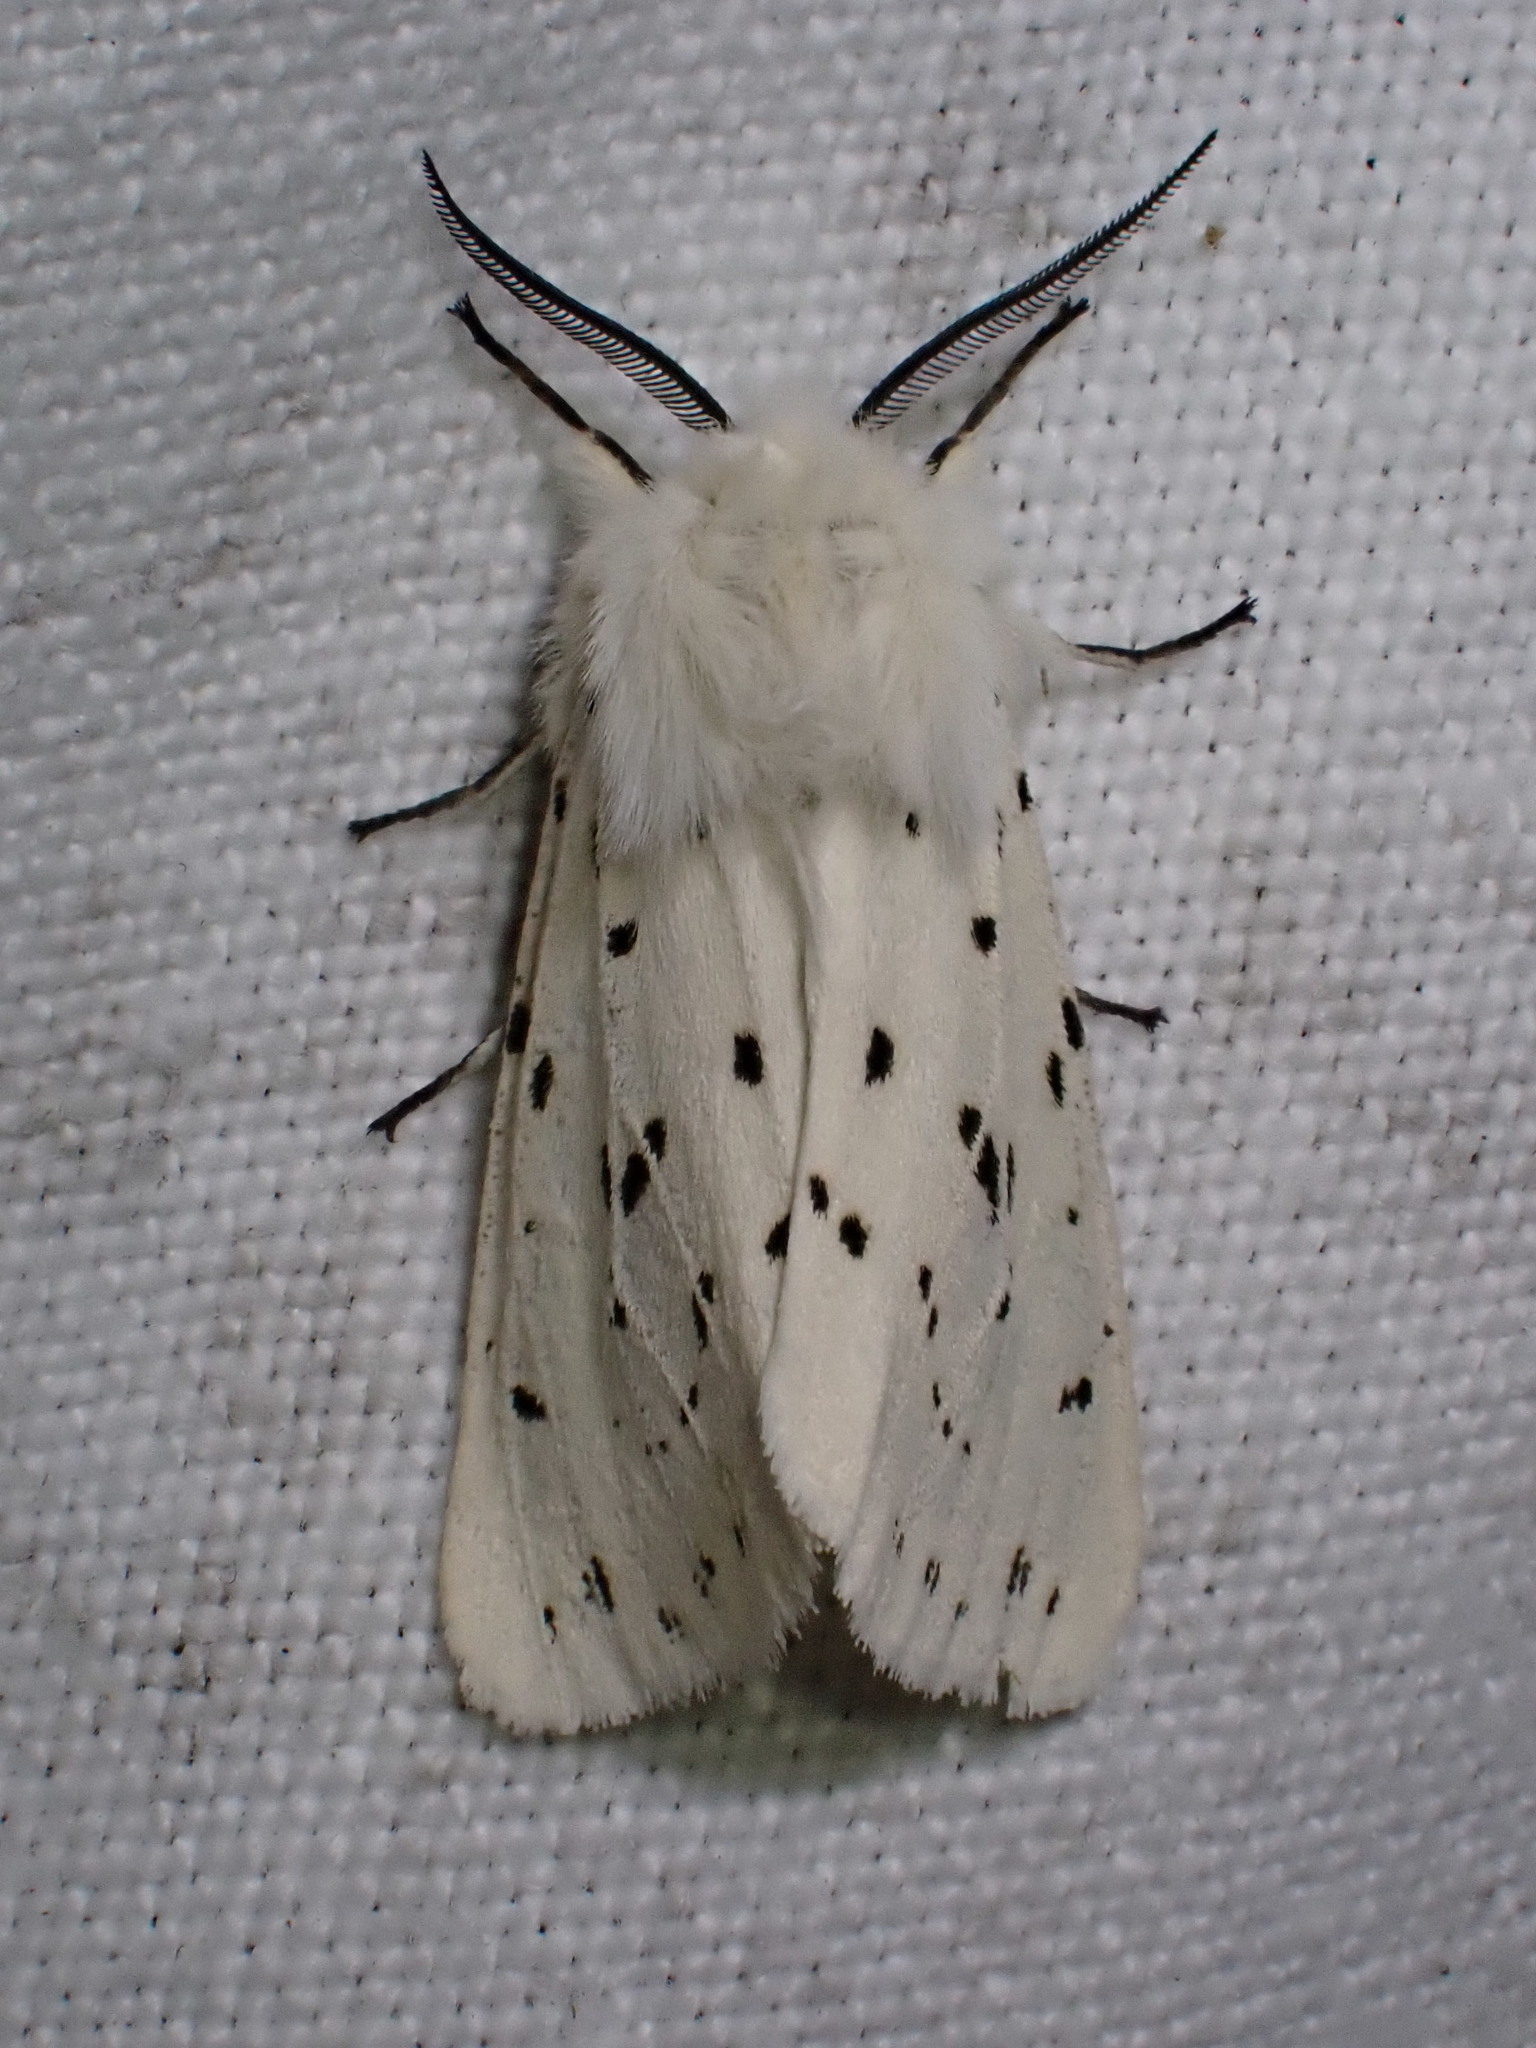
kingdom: Animalia
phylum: Arthropoda
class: Insecta
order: Lepidoptera
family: Erebidae
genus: Spilosoma
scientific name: Spilosoma lubricipeda
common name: White ermine
